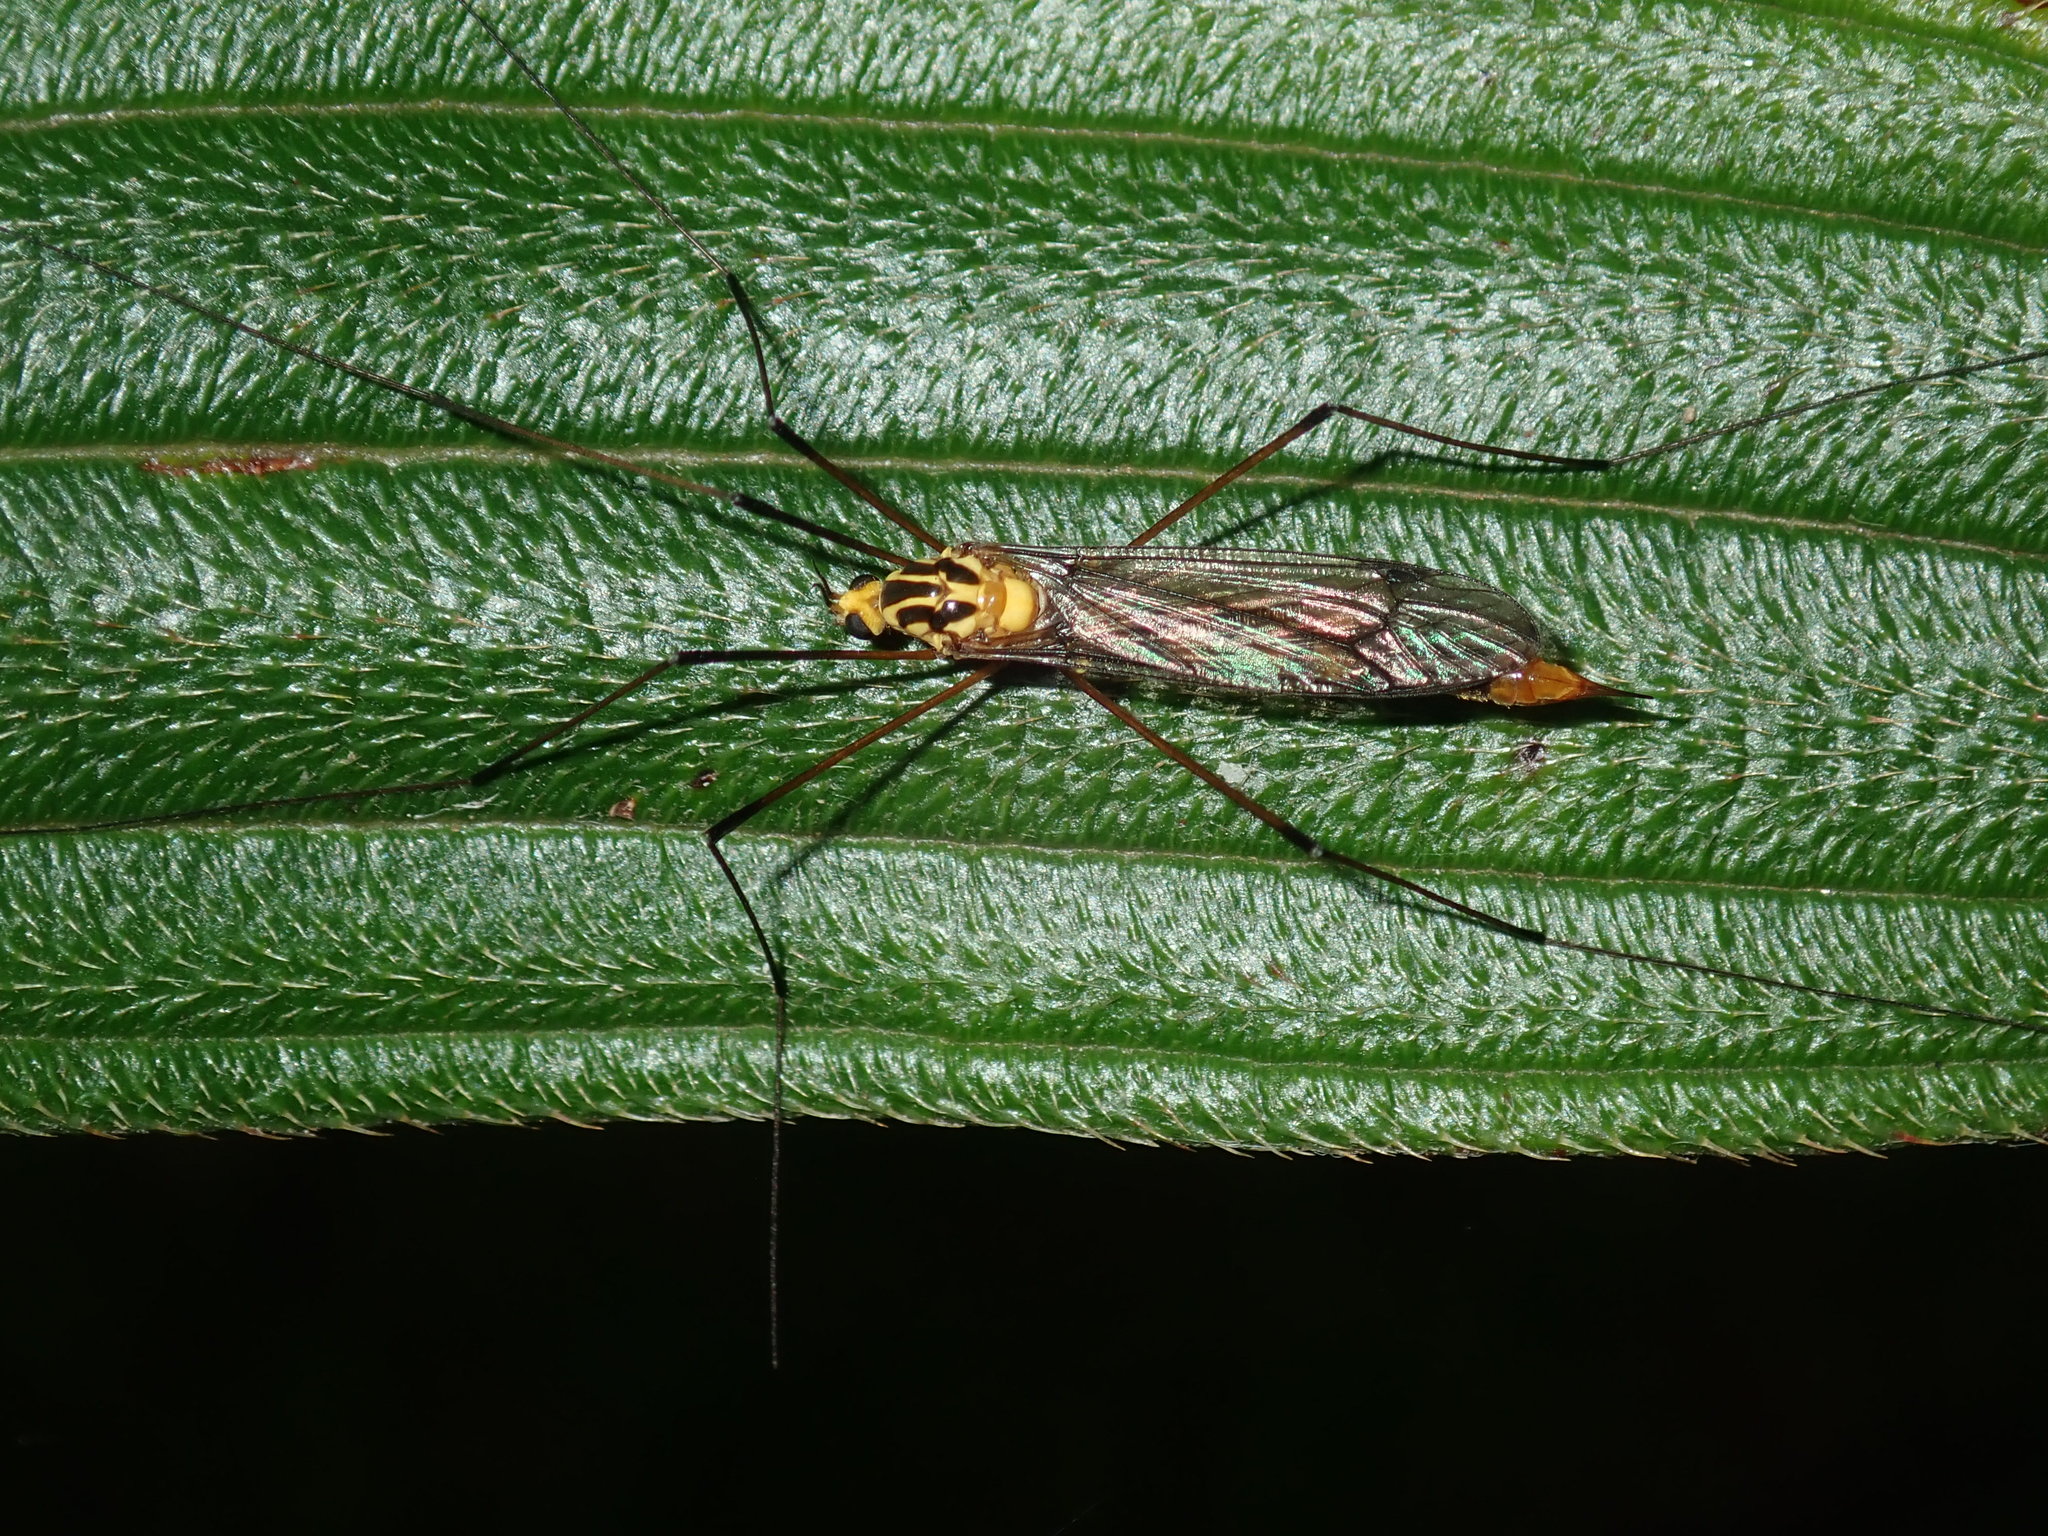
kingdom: Animalia
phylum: Arthropoda
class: Insecta
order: Diptera
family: Tipulidae
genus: Nephrotoma
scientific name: Nephrotoma australasiae
